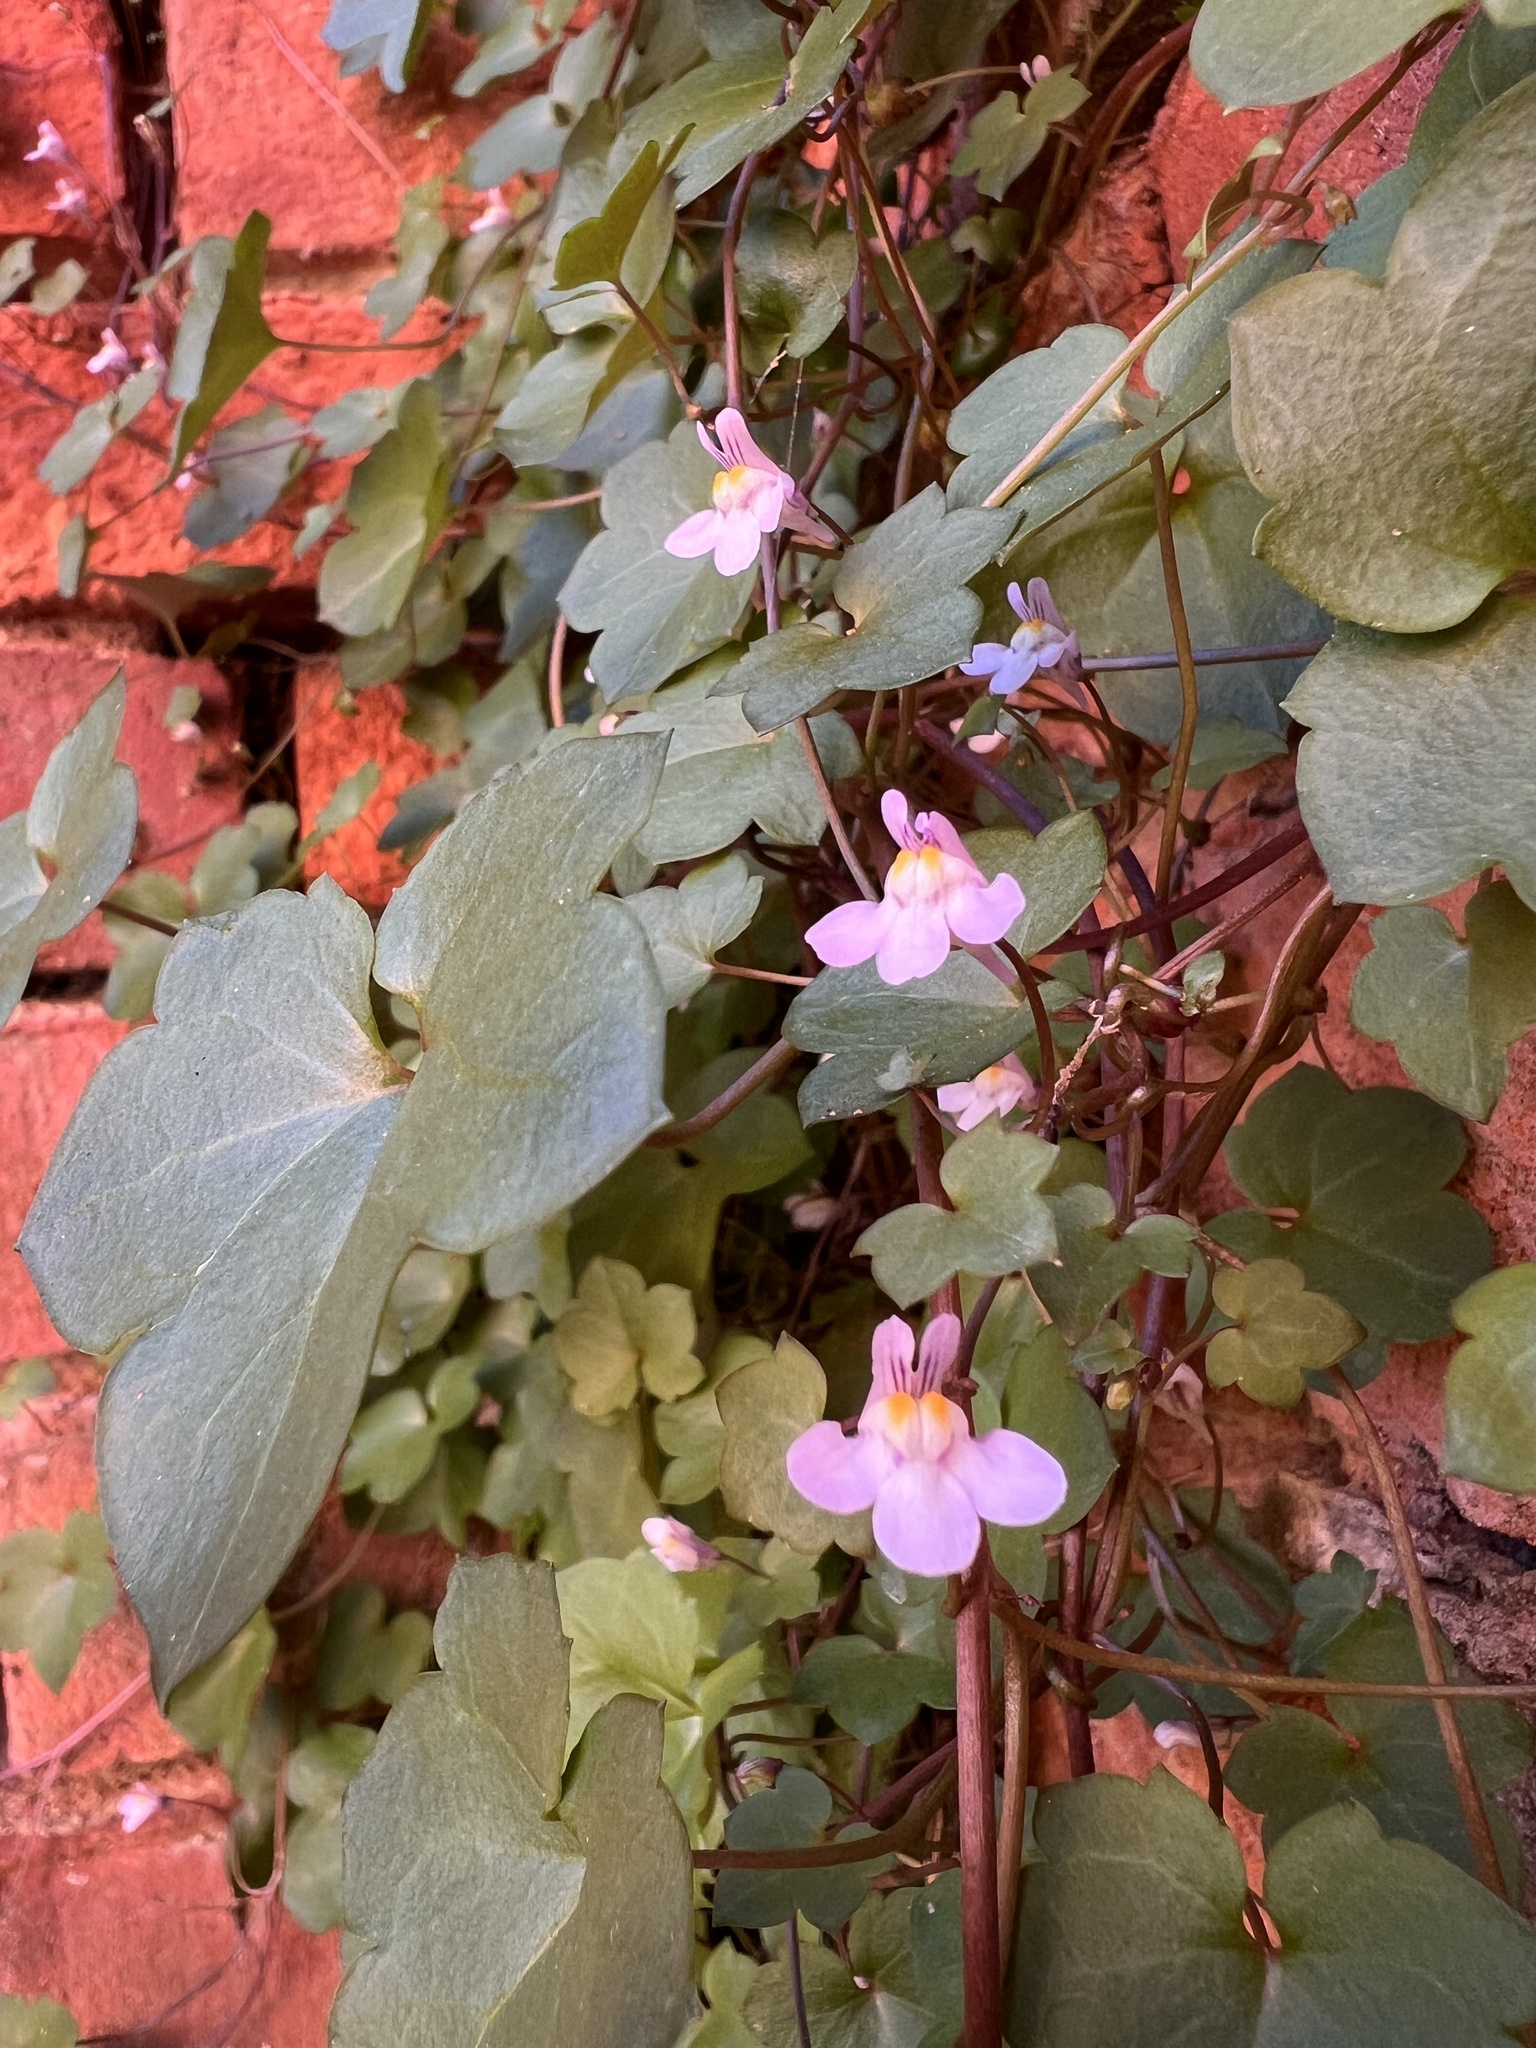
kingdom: Plantae
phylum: Tracheophyta
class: Magnoliopsida
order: Lamiales
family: Plantaginaceae
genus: Cymbalaria
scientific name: Cymbalaria muralis
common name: Ivy-leaved toadflax
